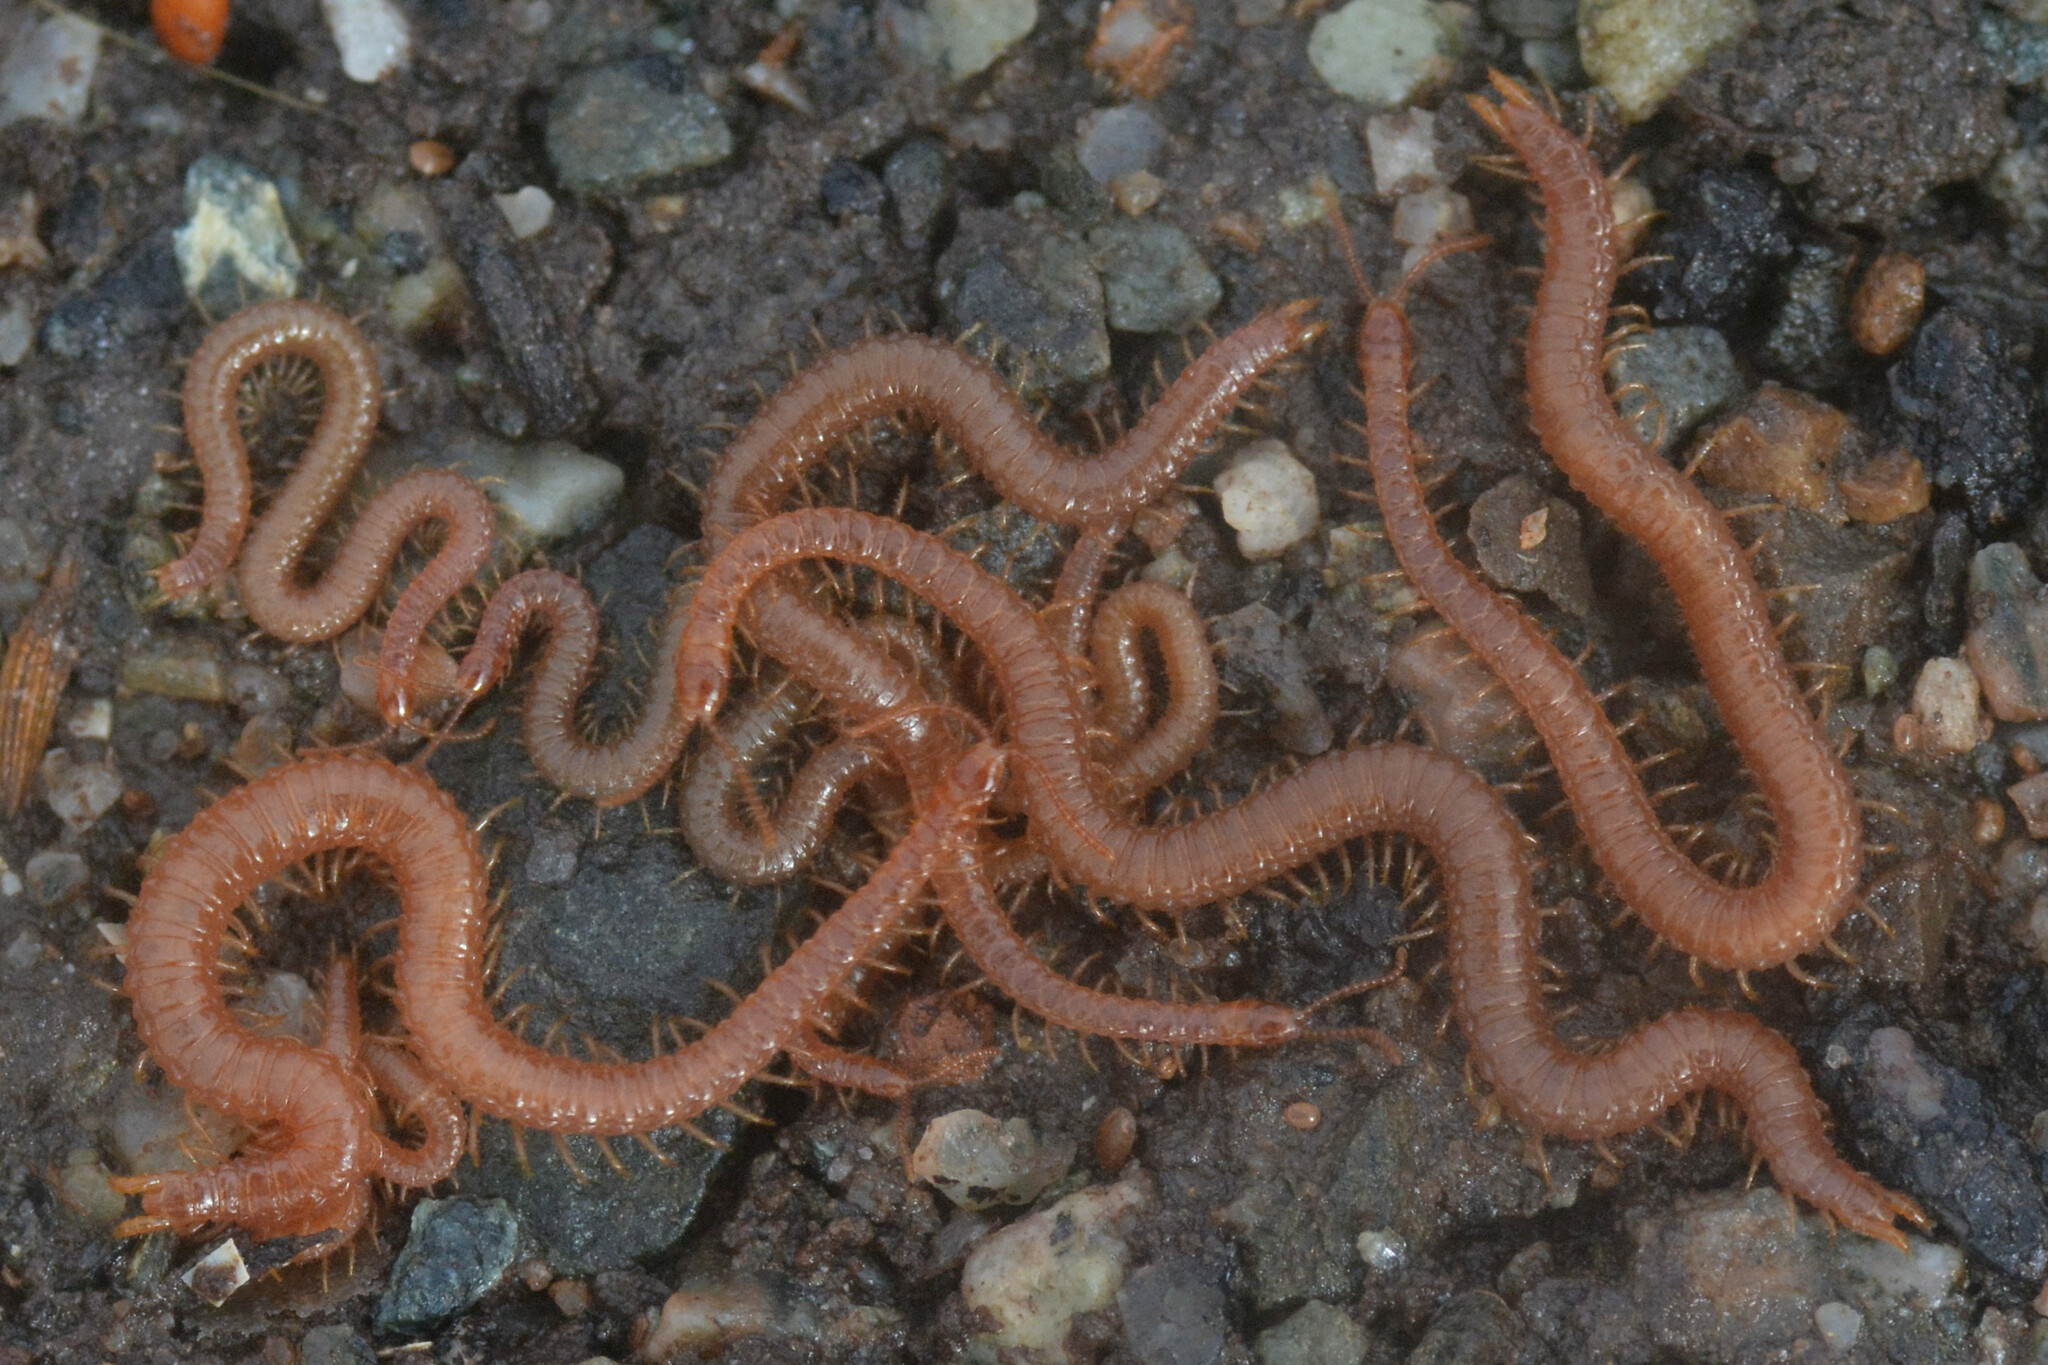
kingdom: Animalia
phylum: Arthropoda
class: Chilopoda
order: Geophilomorpha
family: Linotaeniidae
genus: Strigamia
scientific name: Strigamia maritima
